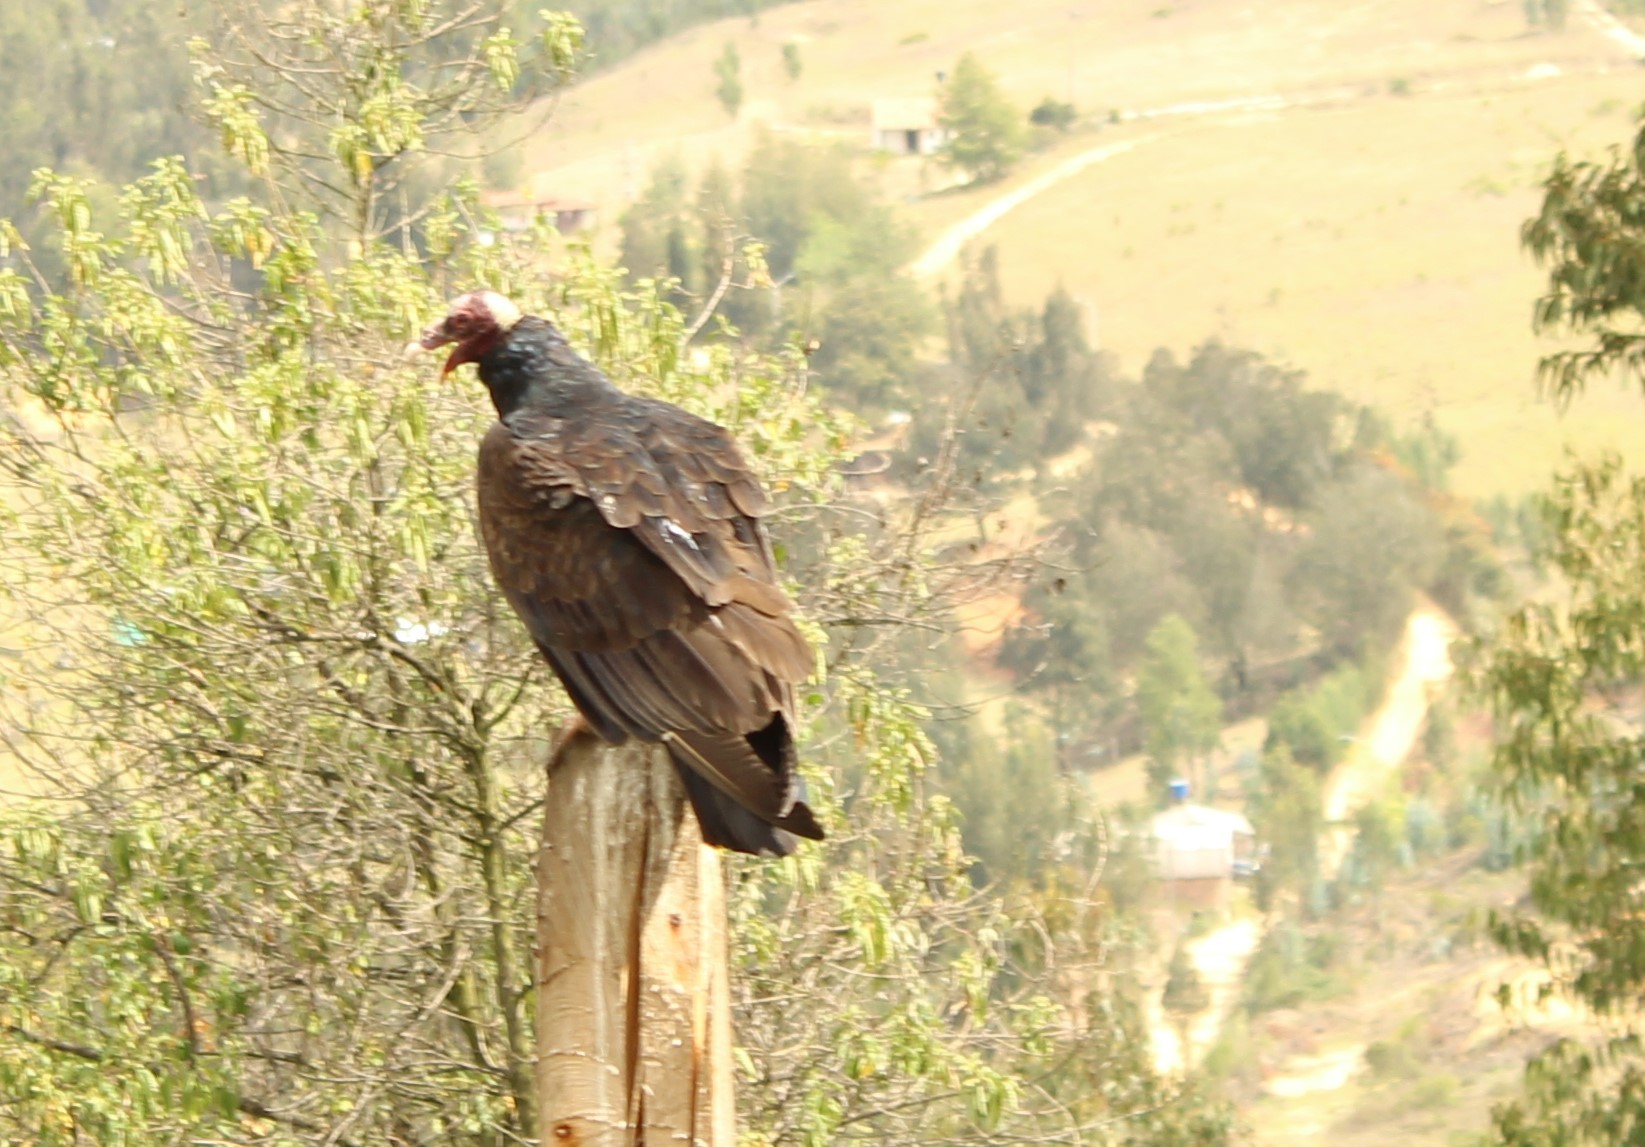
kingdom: Animalia
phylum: Chordata
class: Aves
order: Accipitriformes
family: Cathartidae
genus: Cathartes
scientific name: Cathartes aura
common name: Turkey vulture
